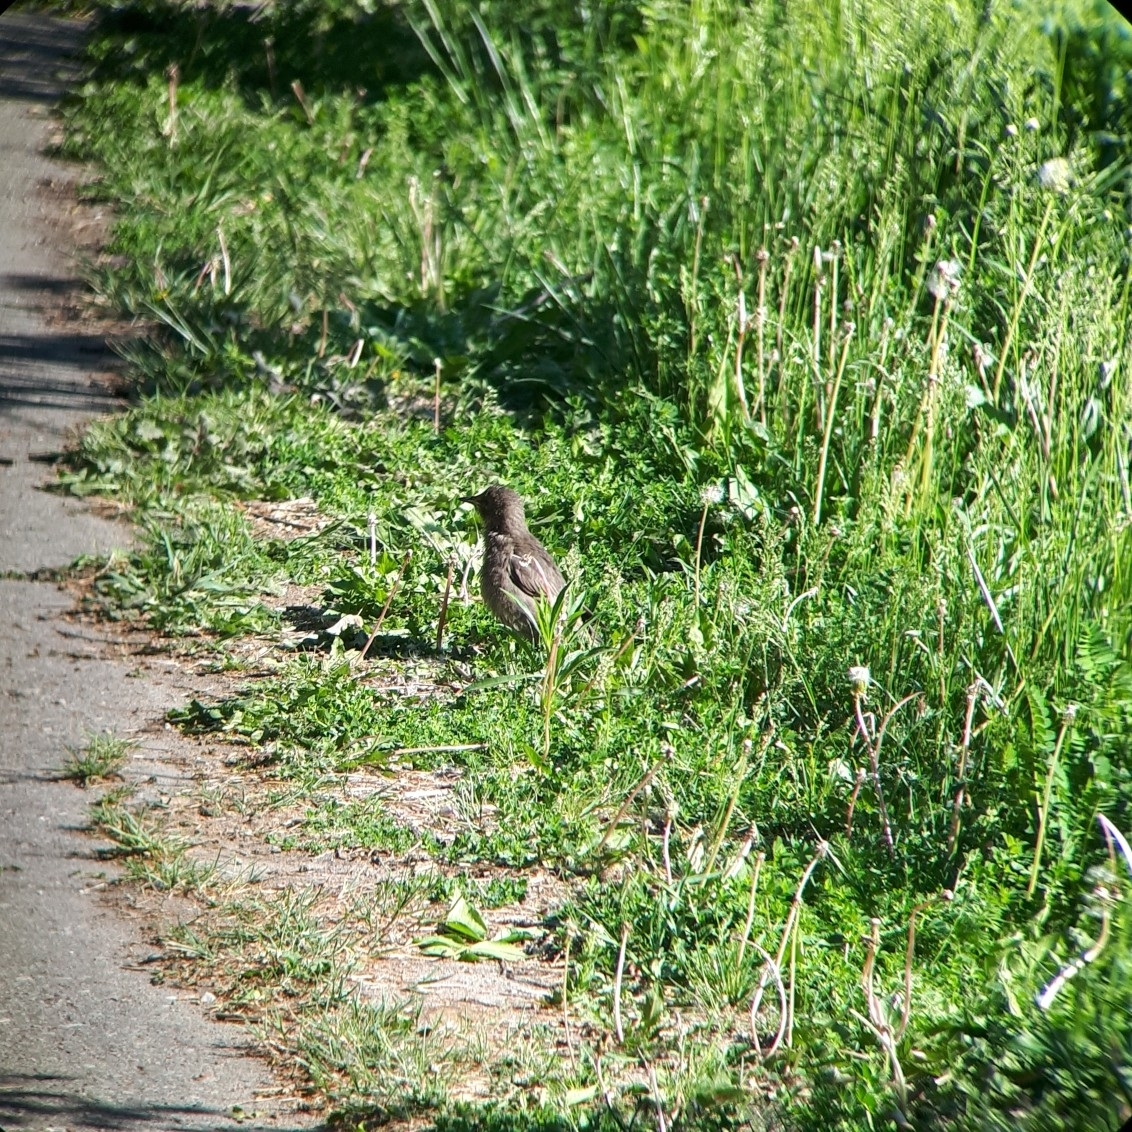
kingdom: Animalia
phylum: Chordata
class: Aves
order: Passeriformes
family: Sturnidae
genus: Sturnus
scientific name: Sturnus vulgaris
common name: Common starling
